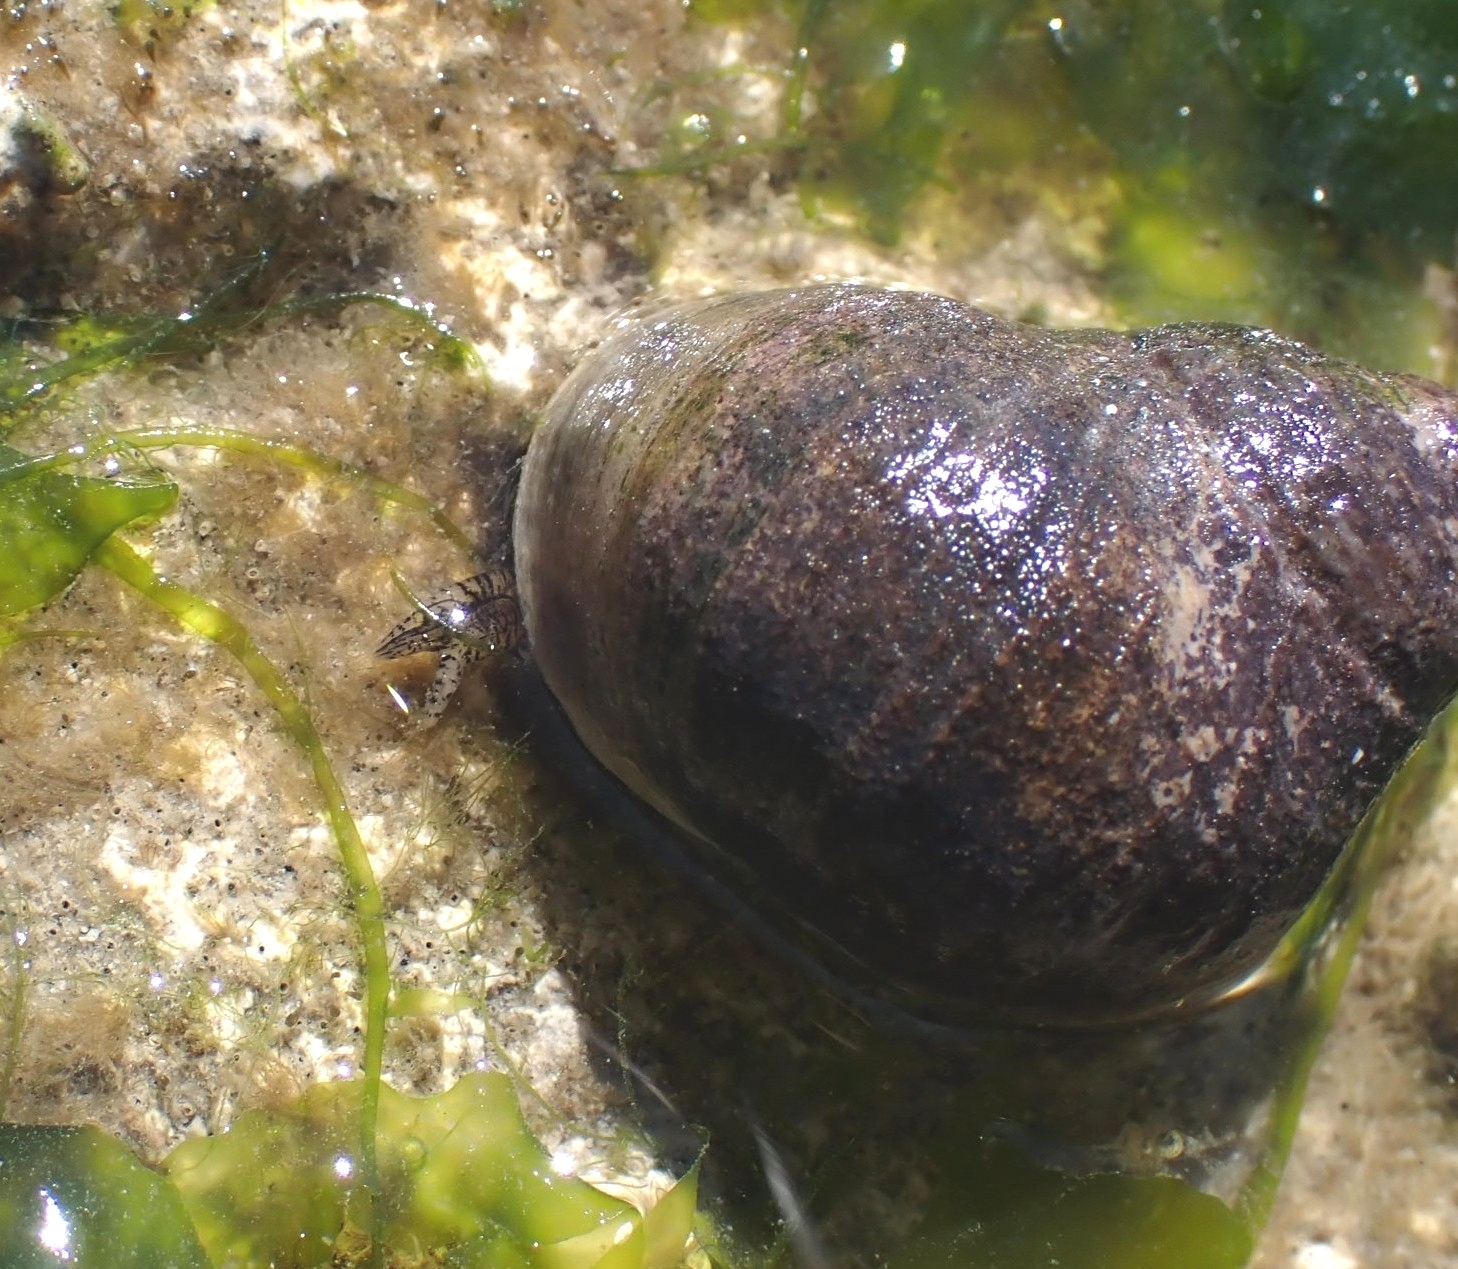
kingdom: Animalia
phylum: Mollusca
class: Gastropoda
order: Littorinimorpha
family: Littorinidae
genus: Littorina
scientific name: Littorina littorea
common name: Common periwinkle
